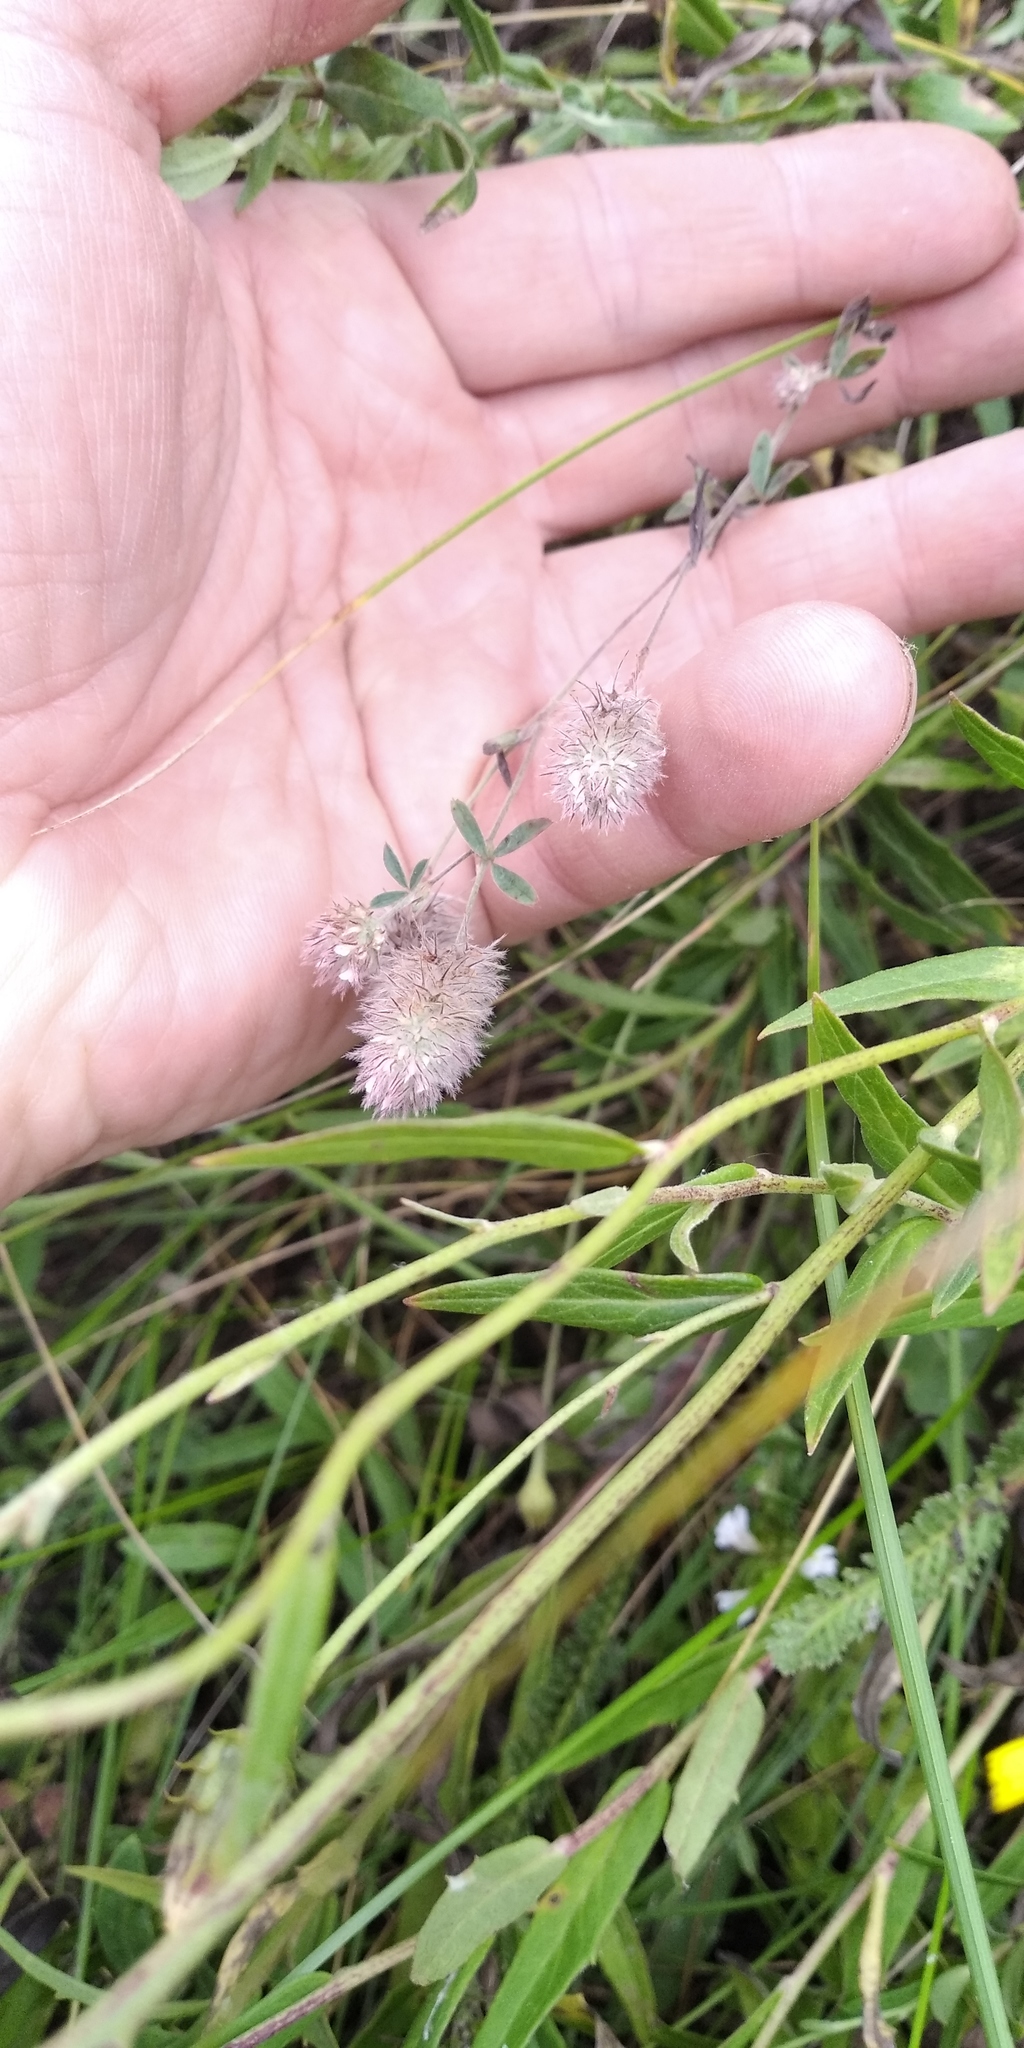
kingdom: Plantae
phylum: Tracheophyta
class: Magnoliopsida
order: Fabales
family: Fabaceae
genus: Trifolium
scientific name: Trifolium arvense
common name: Hare's-foot clover
